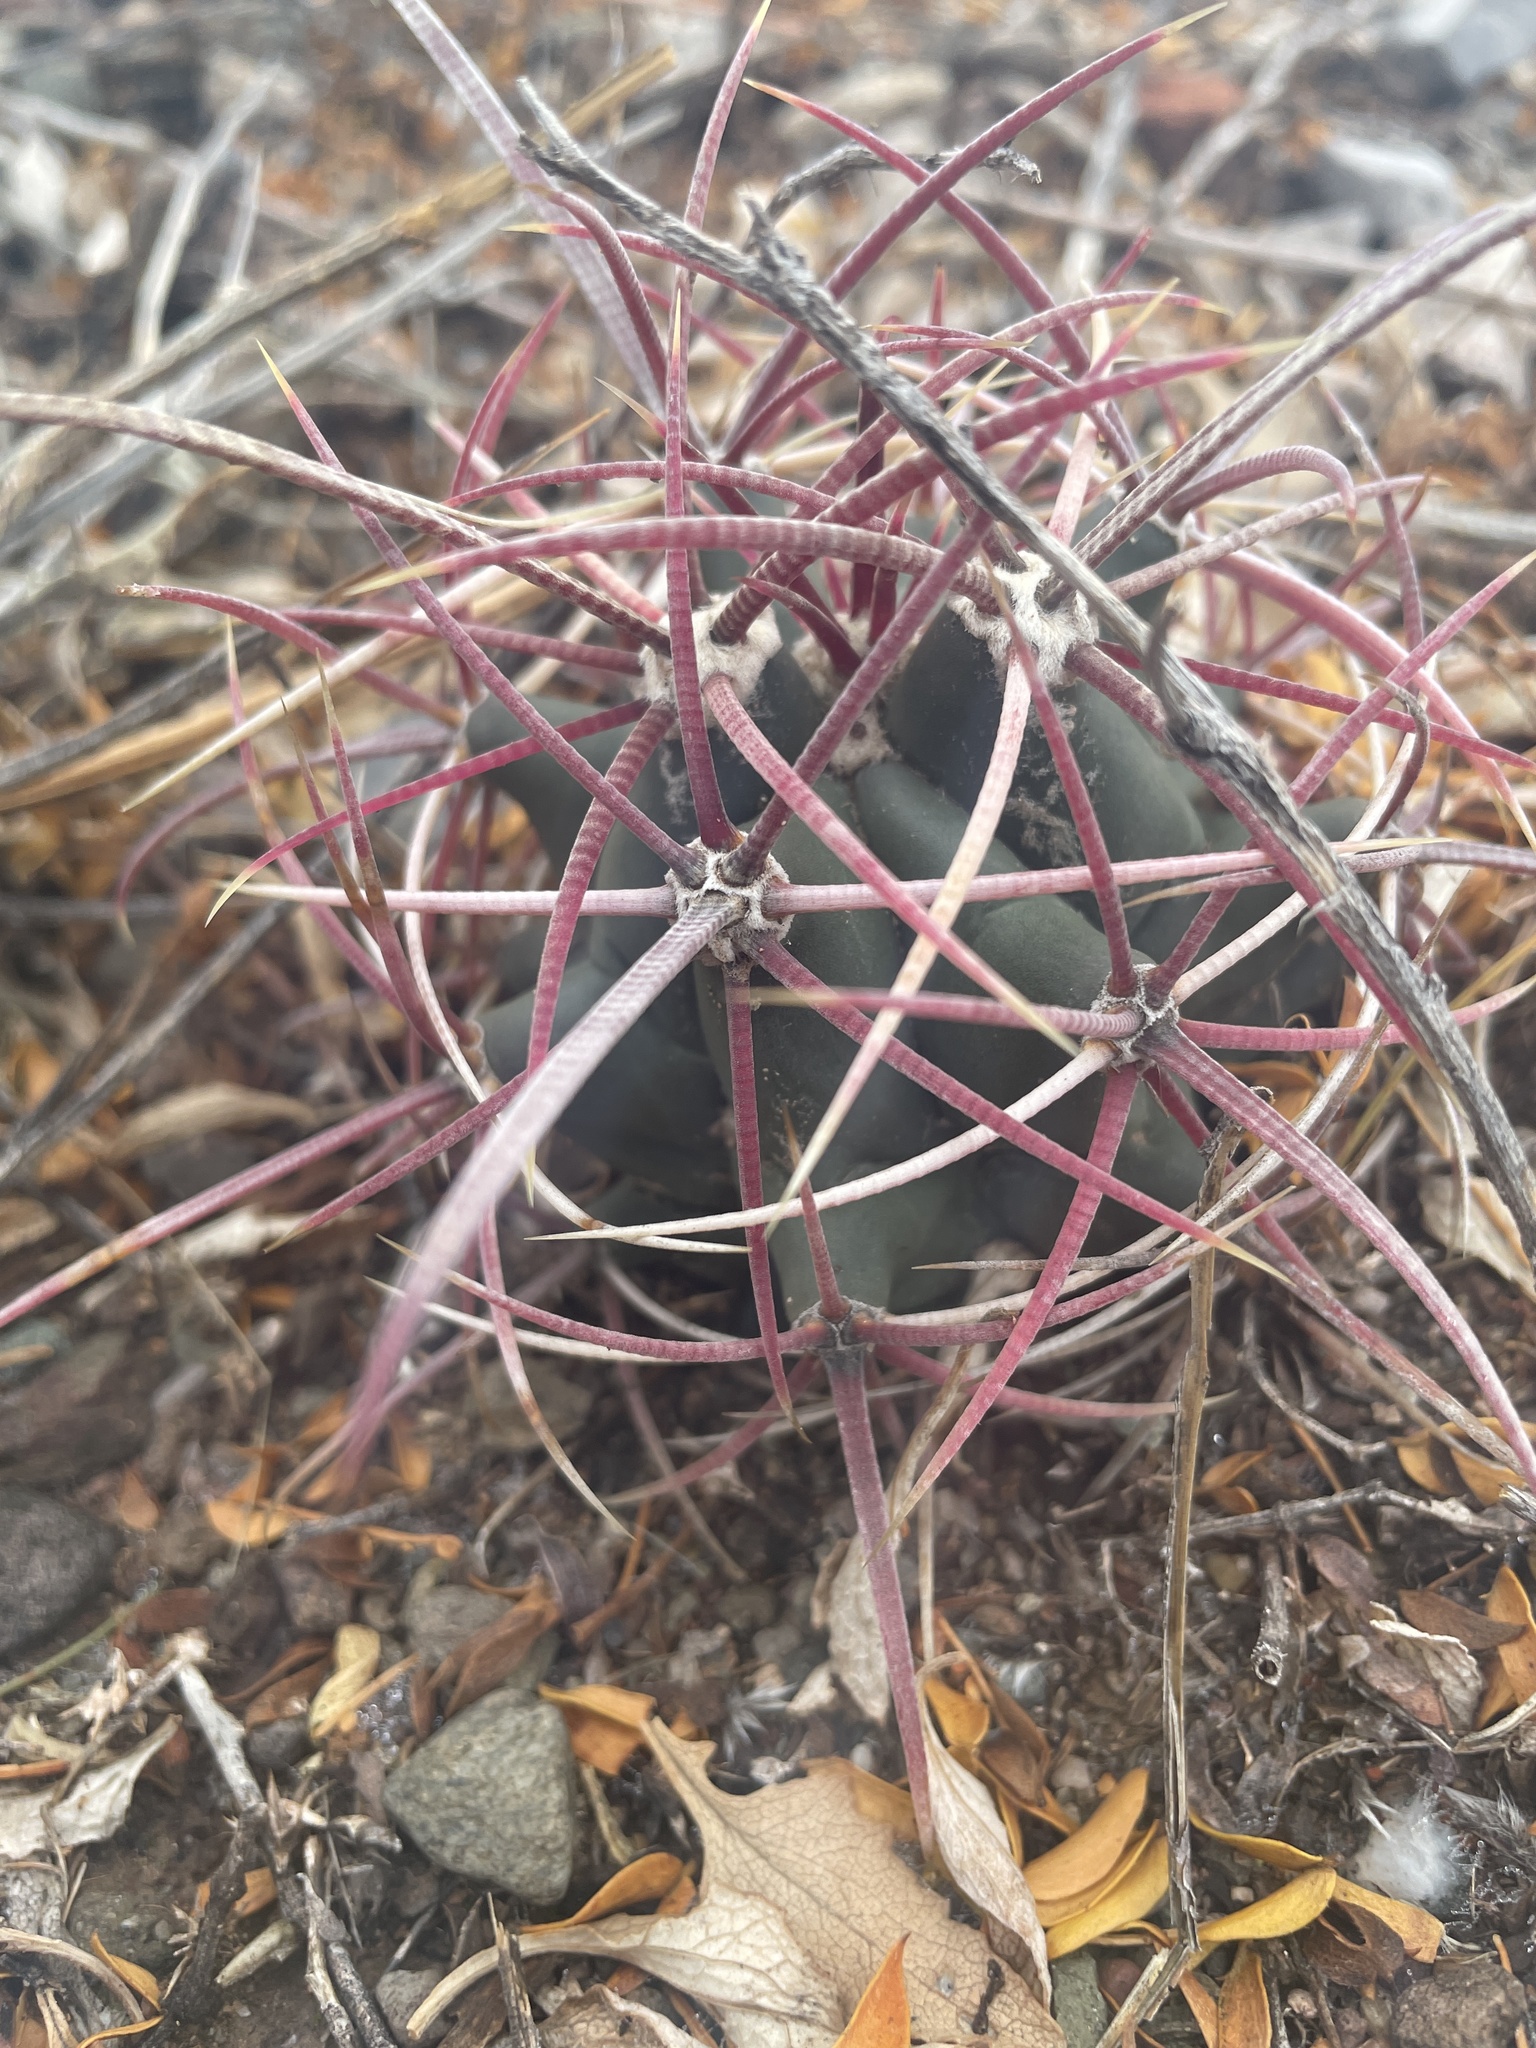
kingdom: Plantae
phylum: Tracheophyta
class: Magnoliopsida
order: Caryophyllales
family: Cactaceae
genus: Ferocactus
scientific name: Ferocactus cylindraceus
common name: California barrel cactus
